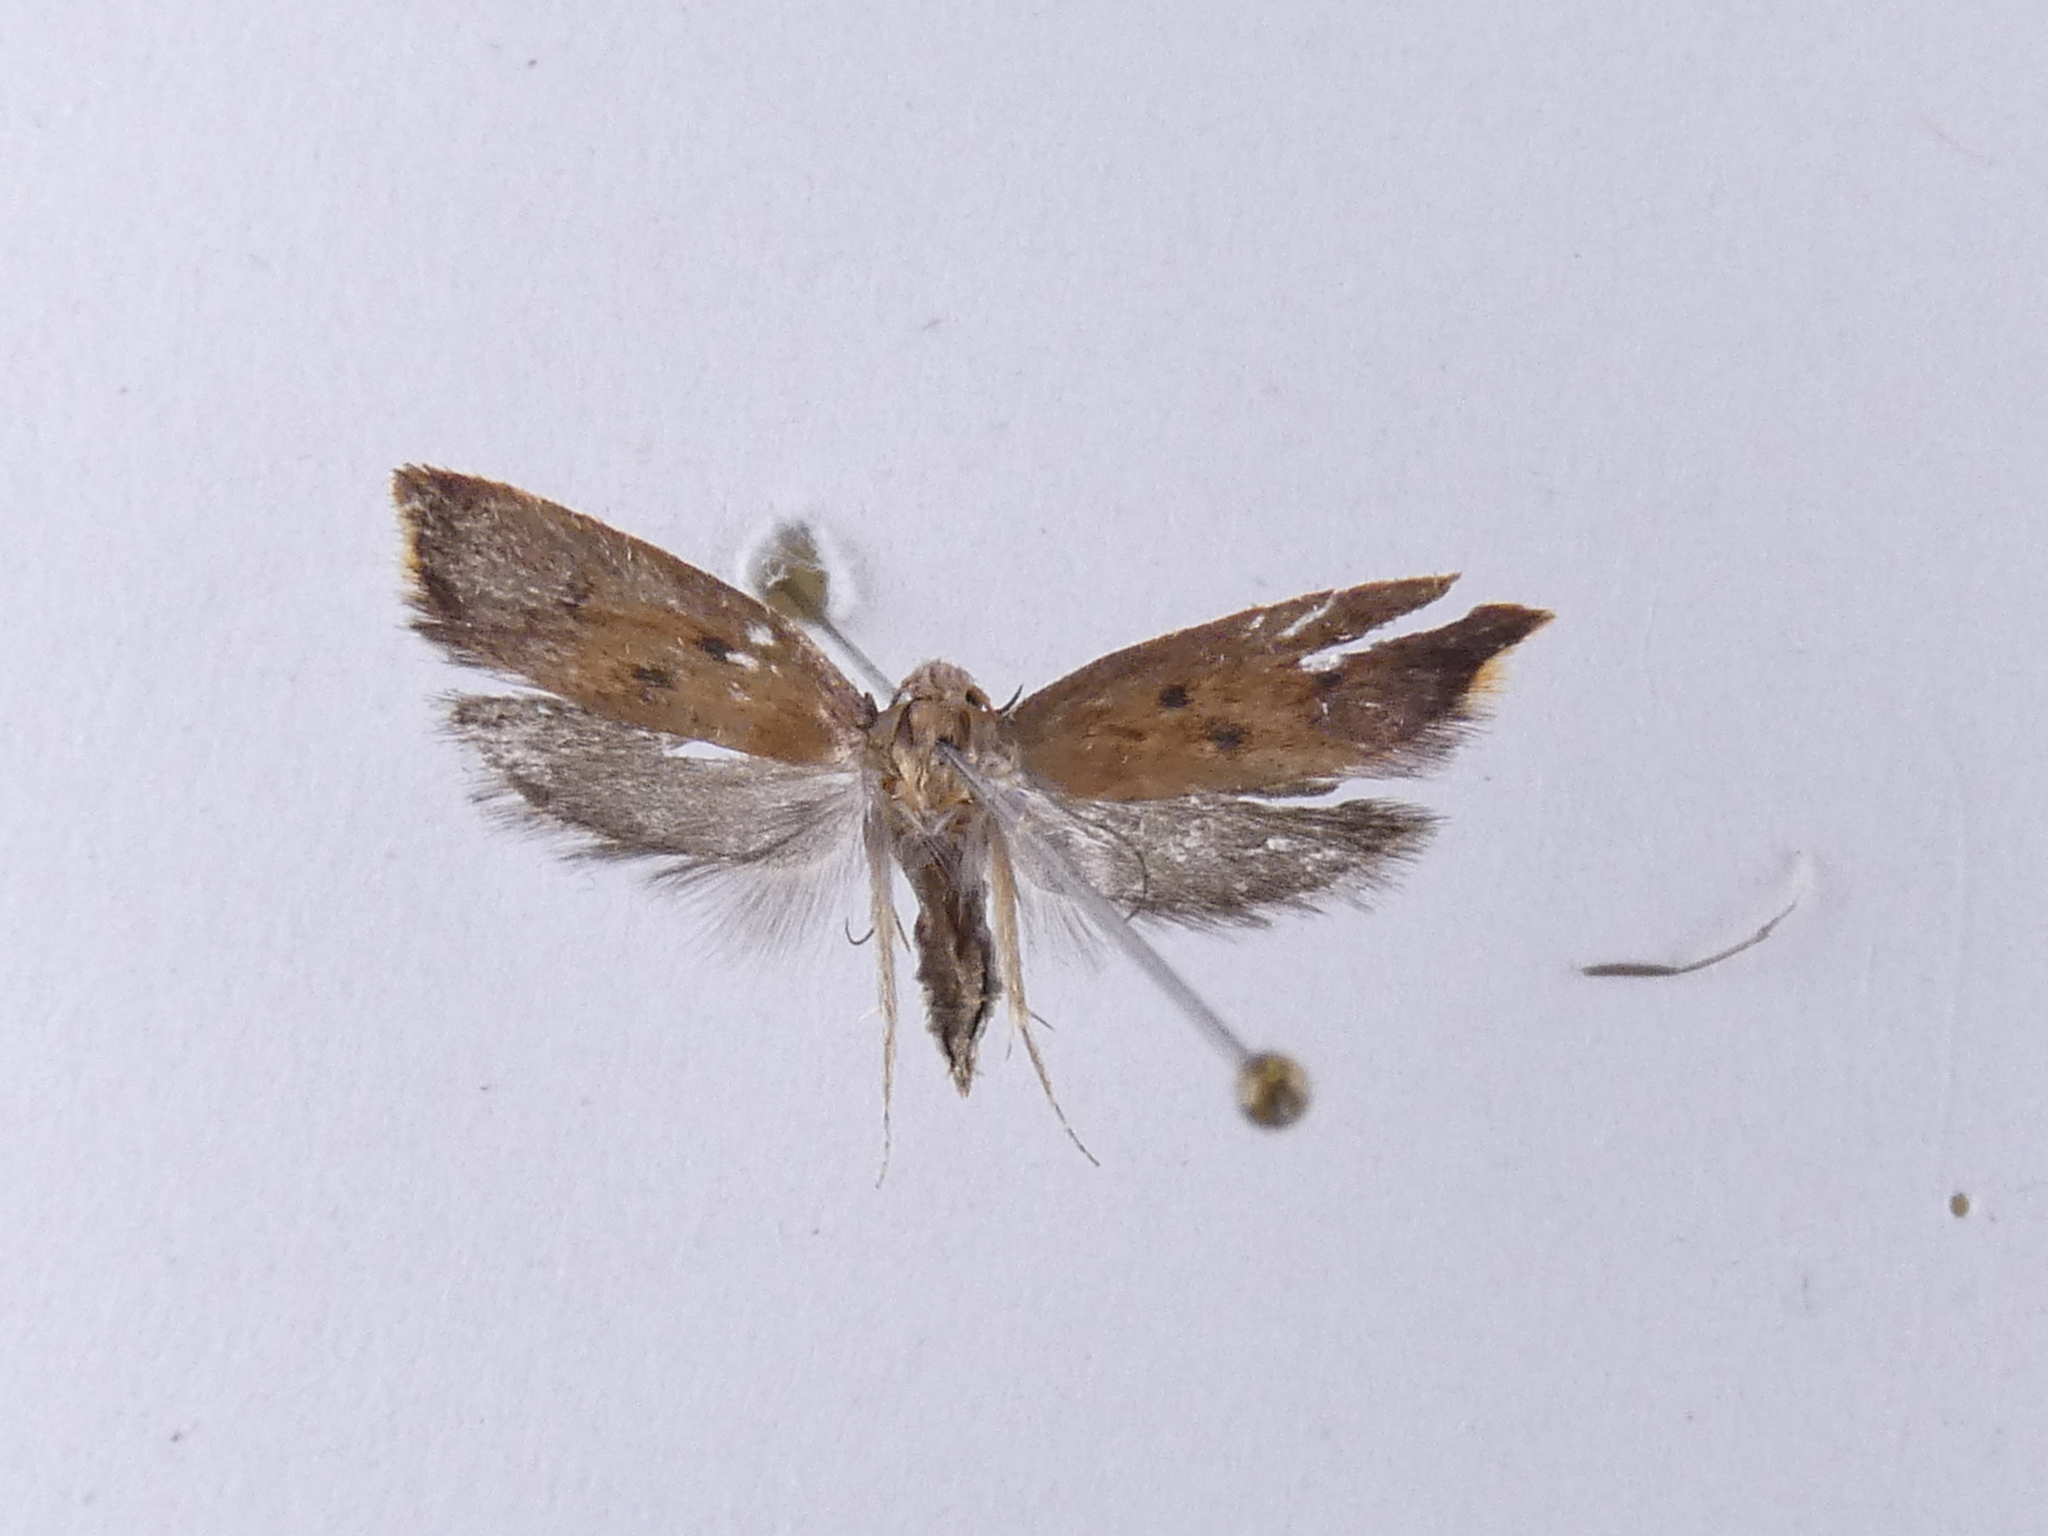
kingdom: Animalia
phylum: Arthropoda
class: Insecta
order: Lepidoptera
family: Oecophoridae
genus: Tachystola
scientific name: Tachystola acroxantha
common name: Ruddy streak
